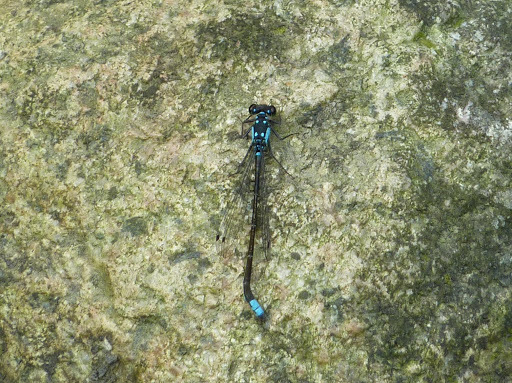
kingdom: Animalia
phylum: Arthropoda
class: Insecta
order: Odonata
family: Coenagrionidae
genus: Ischnura
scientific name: Ischnura cervula
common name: Pacific forktail
